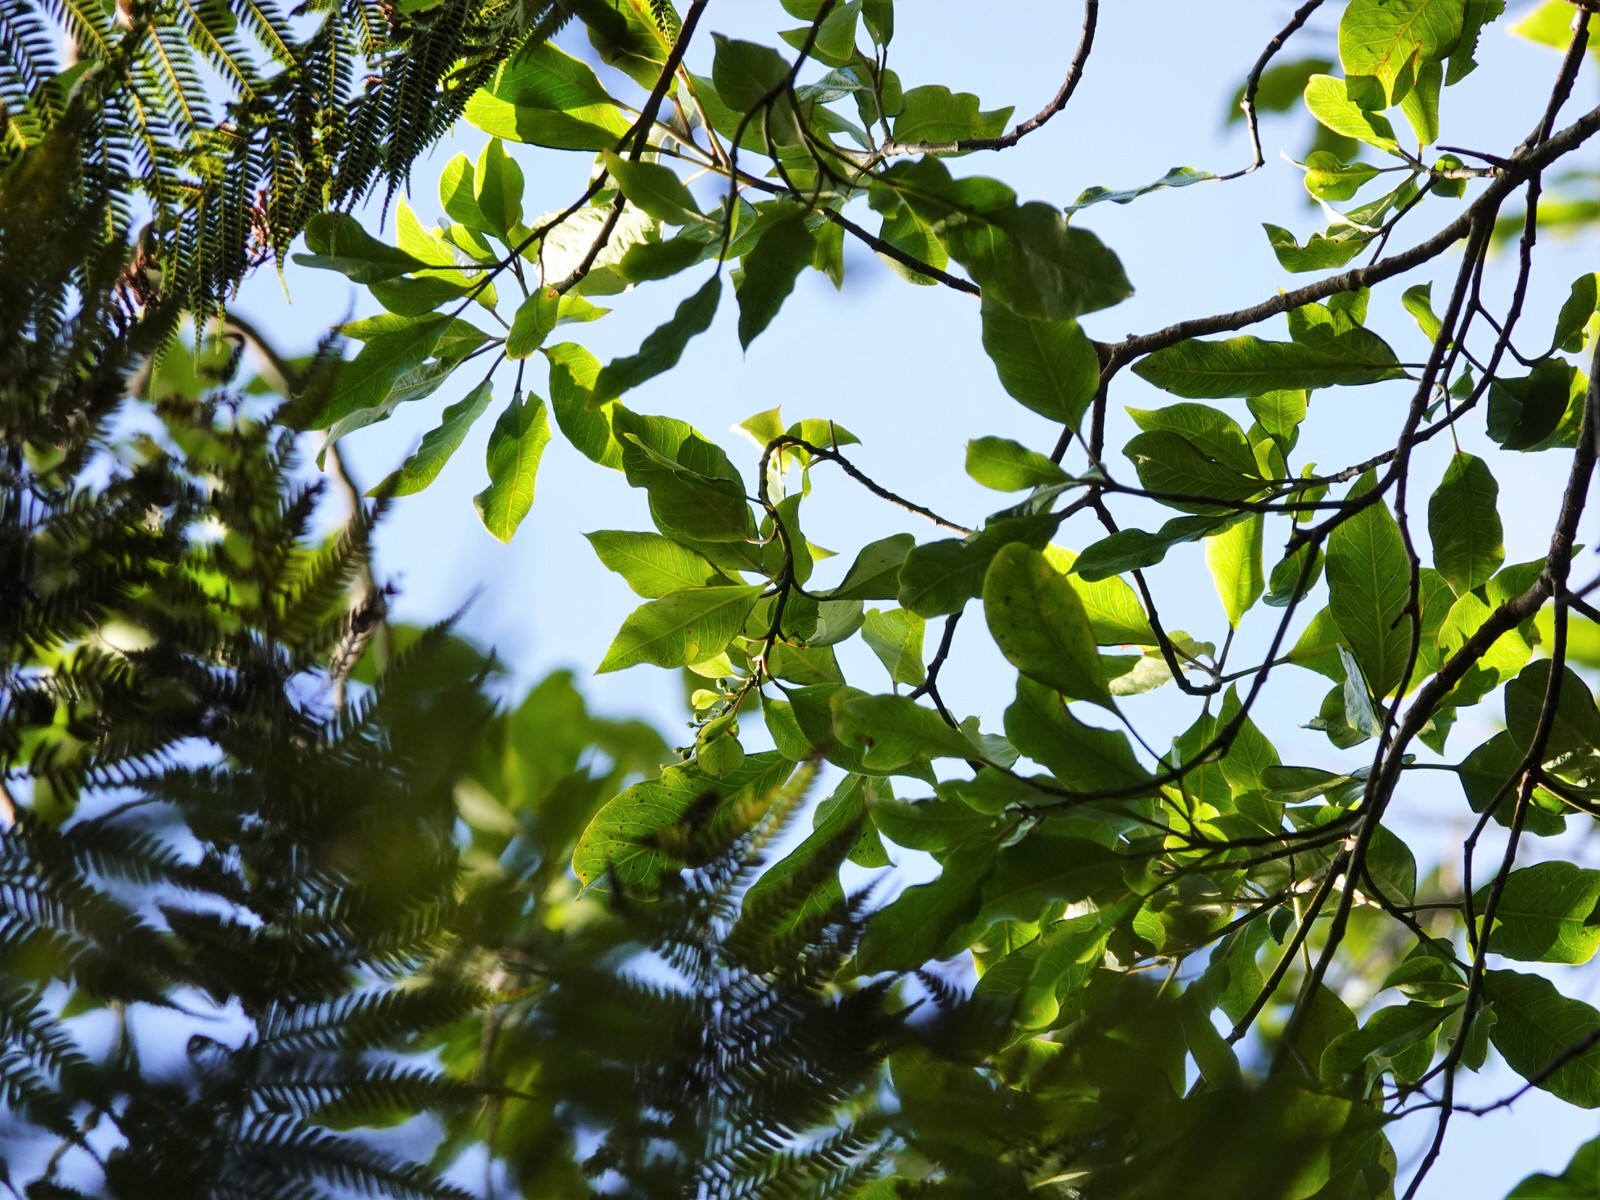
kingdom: Plantae
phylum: Tracheophyta
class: Magnoliopsida
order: Apiales
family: Pittosporaceae
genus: Pittosporum
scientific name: Pittosporum eugenioides
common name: Lemonwood
